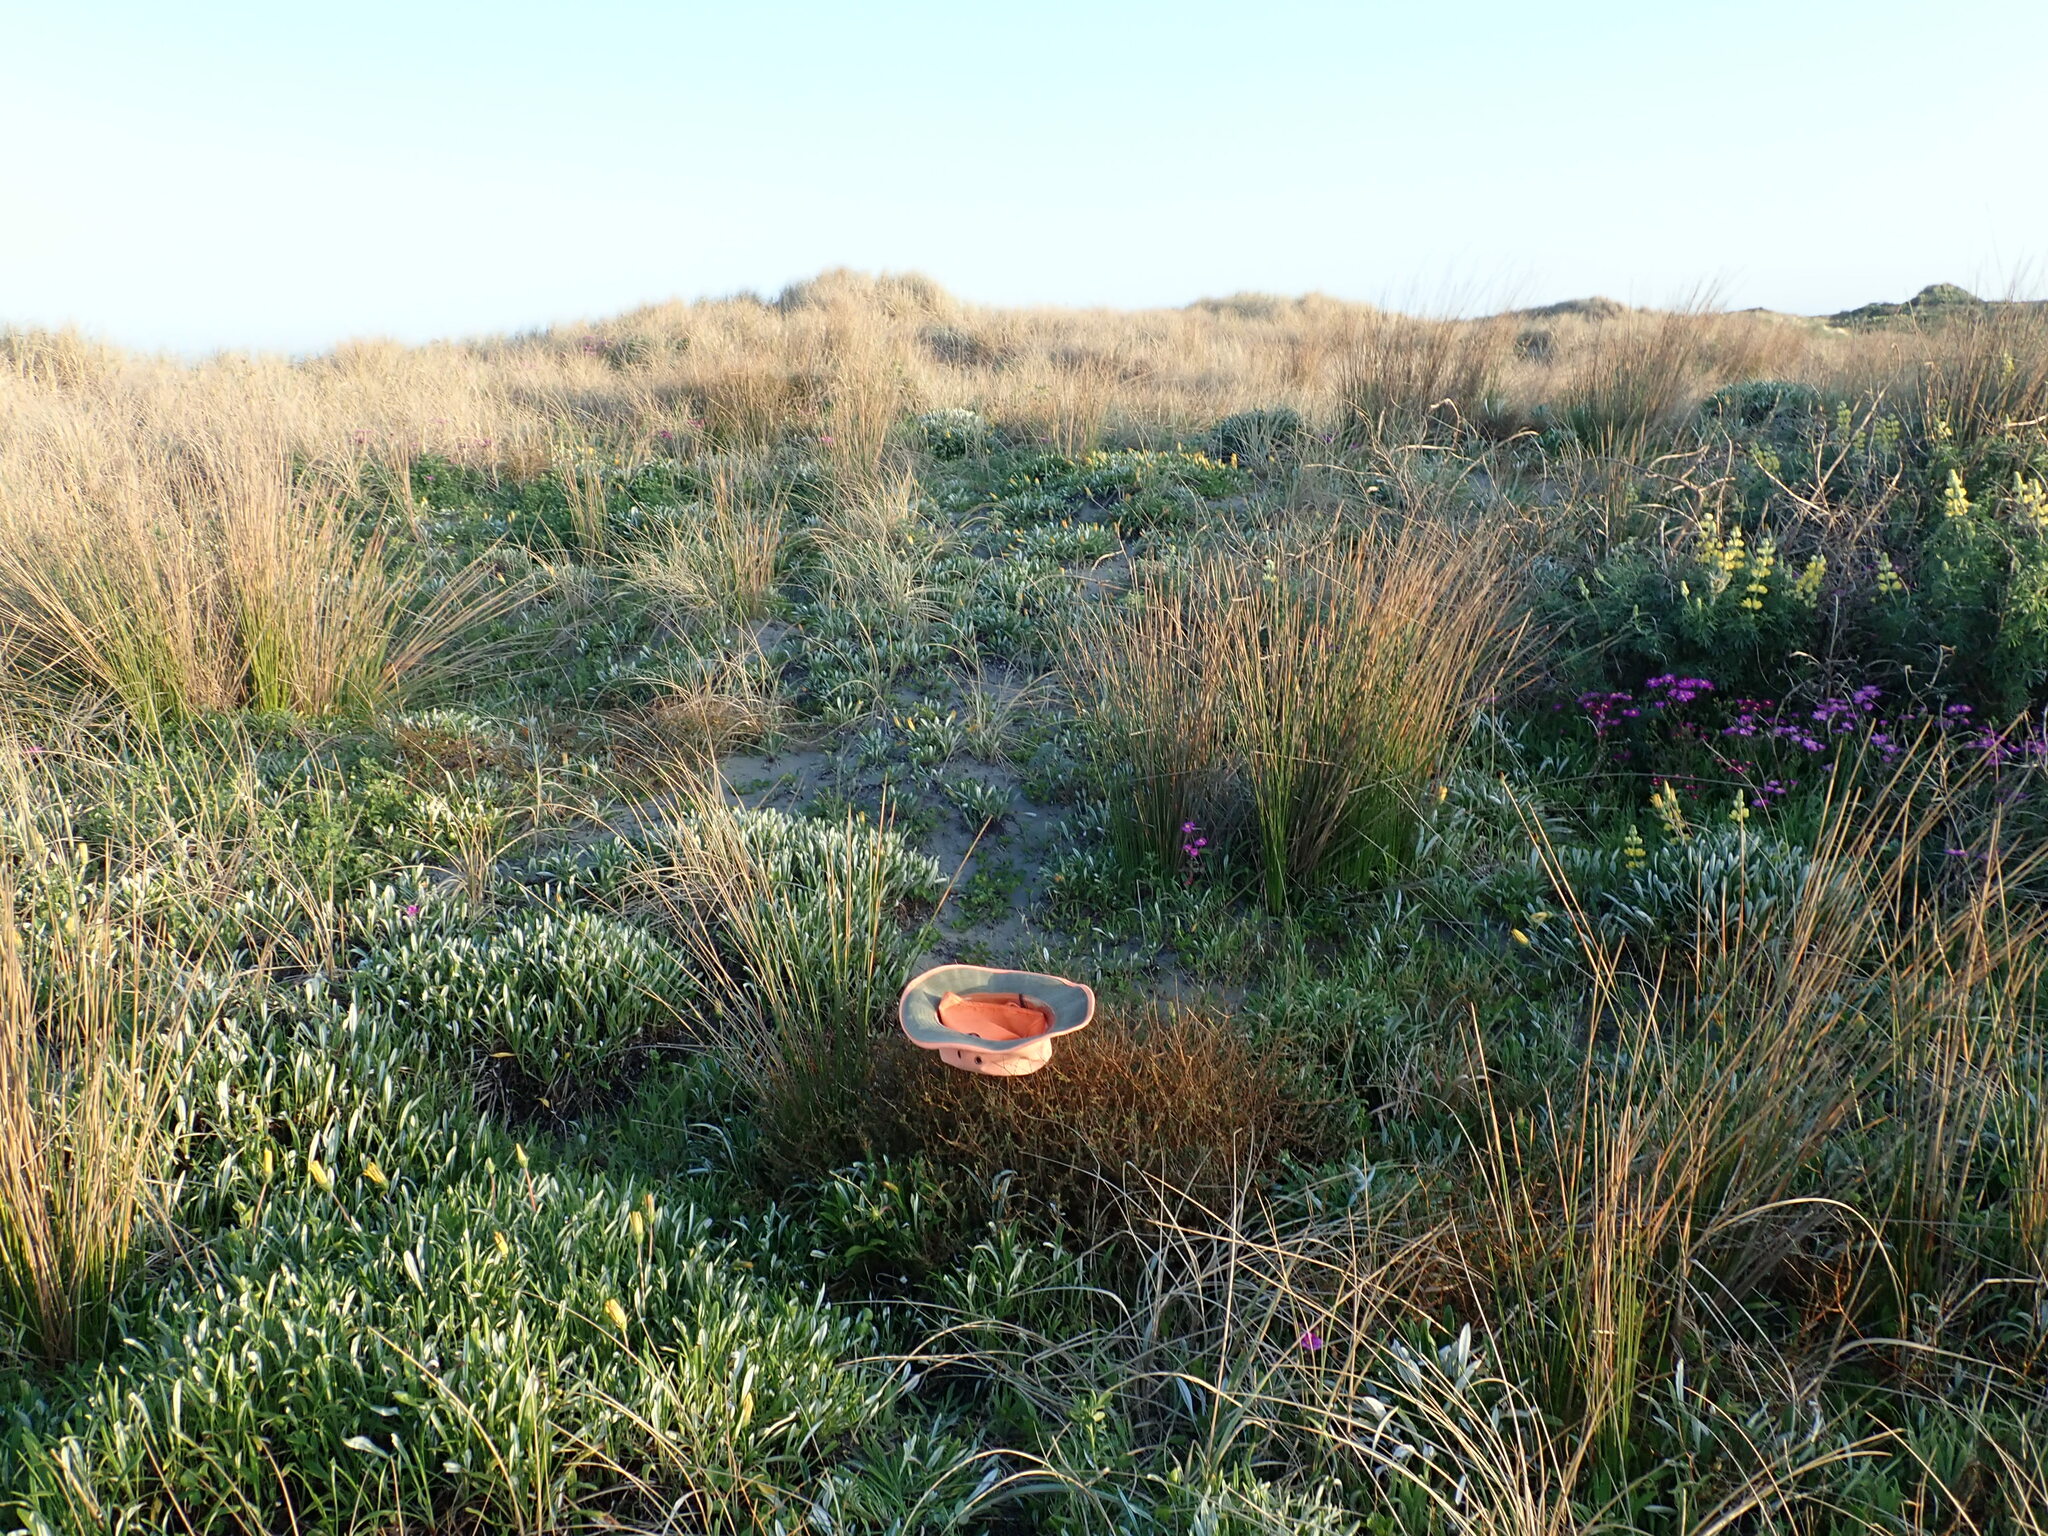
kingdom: Plantae
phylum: Tracheophyta
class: Magnoliopsida
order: Gentianales
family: Rubiaceae
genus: Coprosma
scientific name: Coprosma acerosa
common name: Sand coprosma
